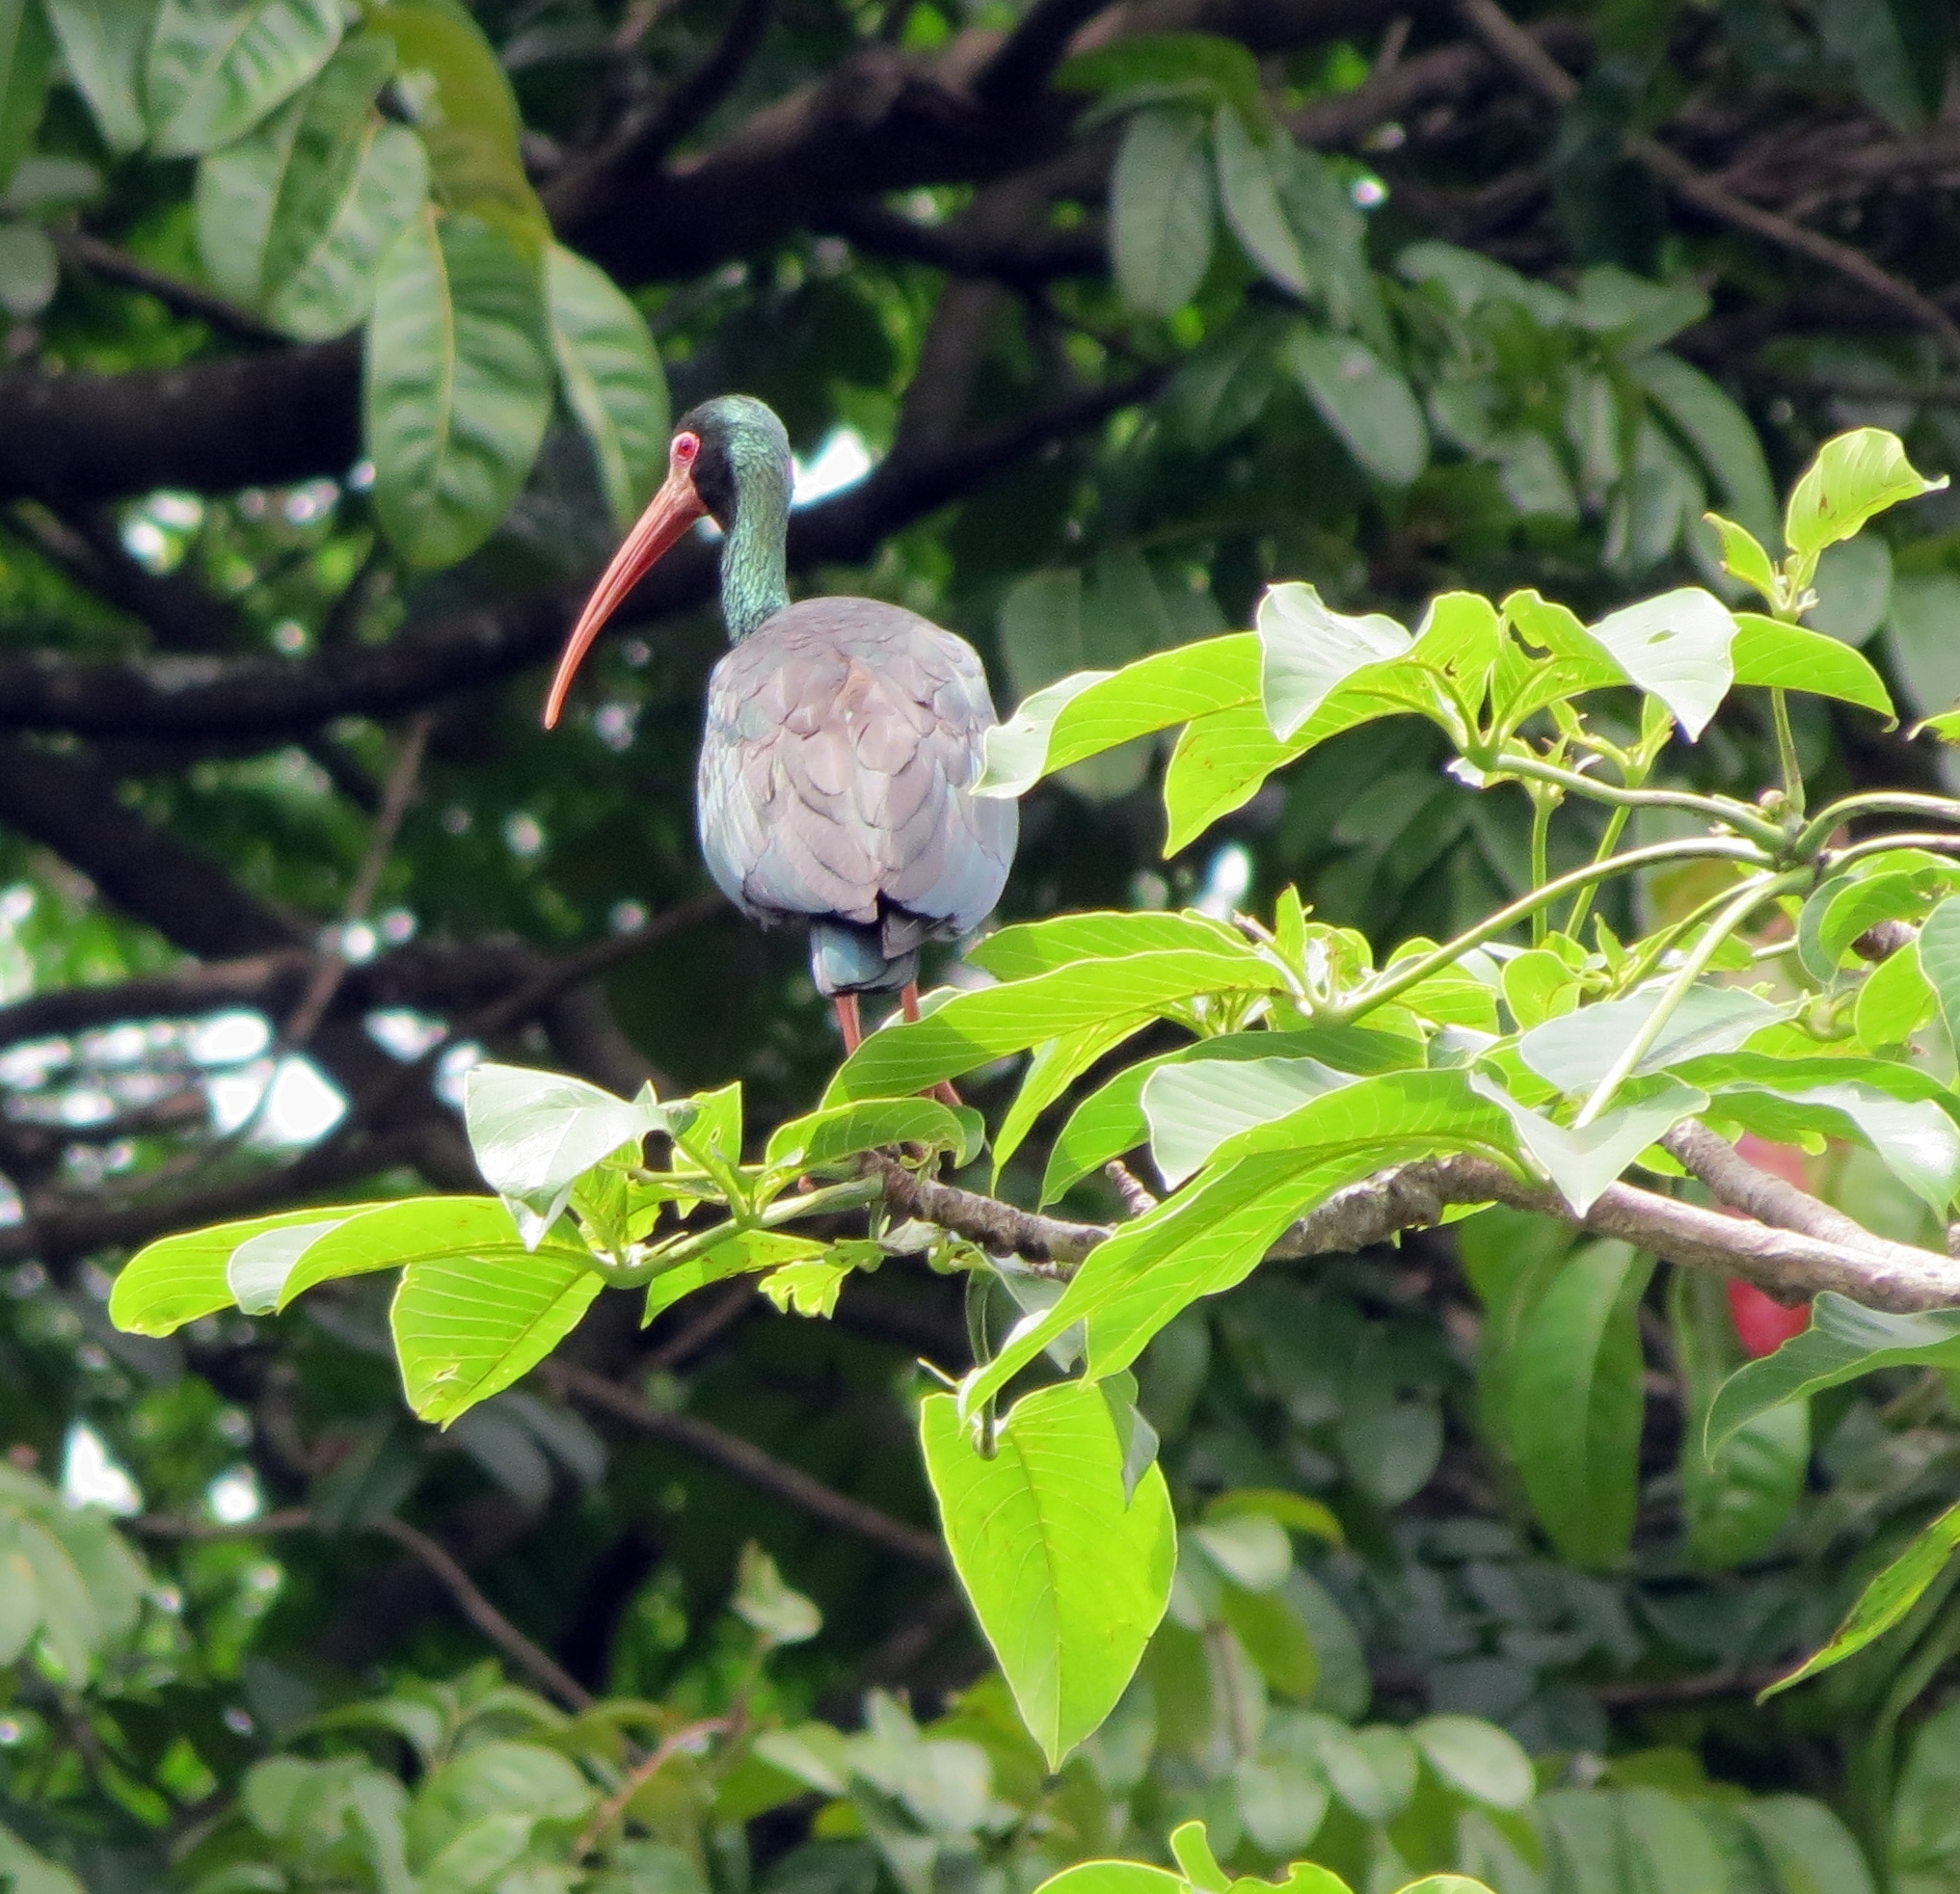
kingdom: Animalia
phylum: Chordata
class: Aves
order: Pelecaniformes
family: Threskiornithidae
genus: Phimosus
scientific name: Phimosus infuscatus
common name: Bare-faced ibis
